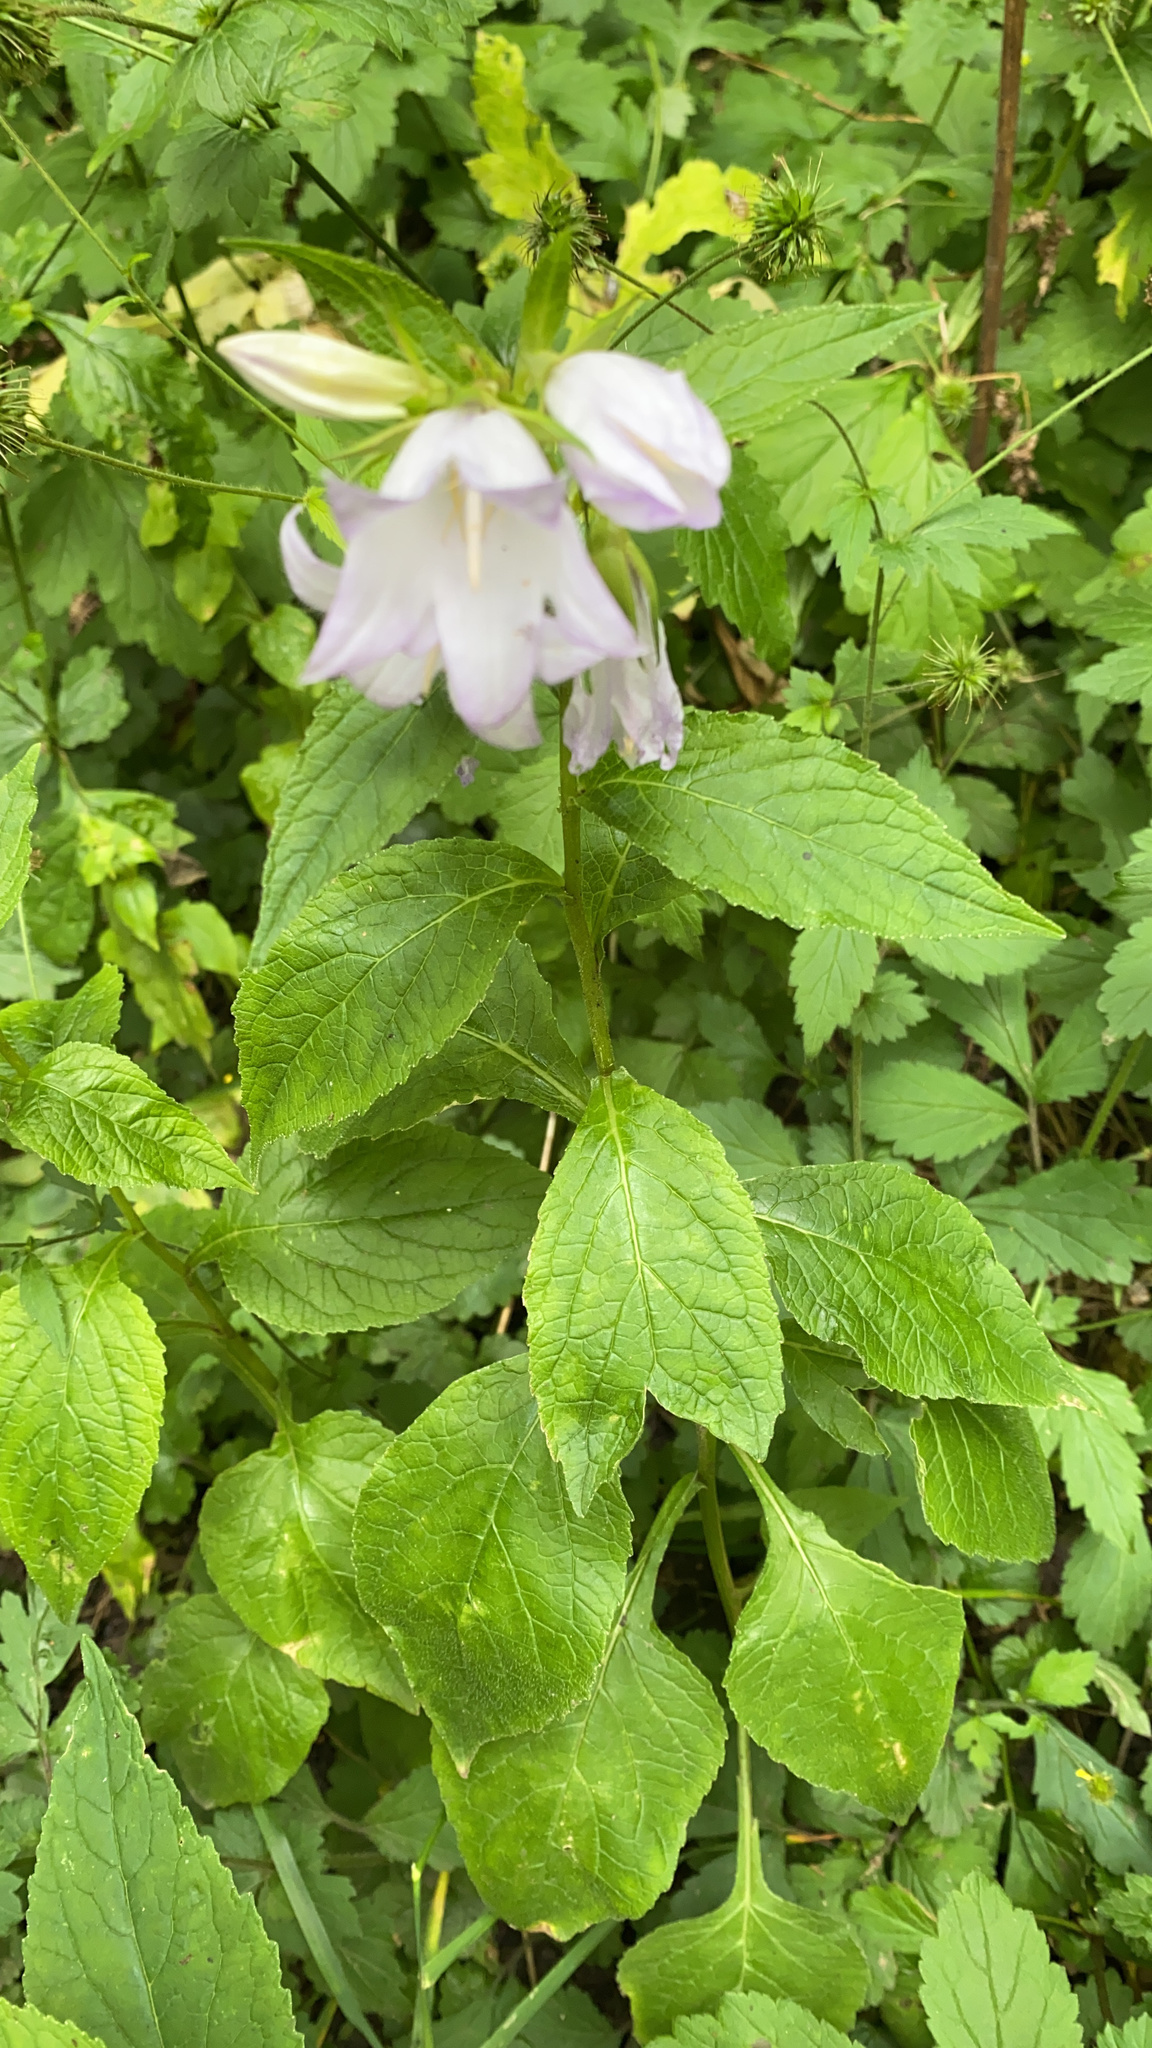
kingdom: Plantae
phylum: Tracheophyta
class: Magnoliopsida
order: Asterales
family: Campanulaceae
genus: Campanula
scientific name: Campanula latifolia
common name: Giant bellflower
